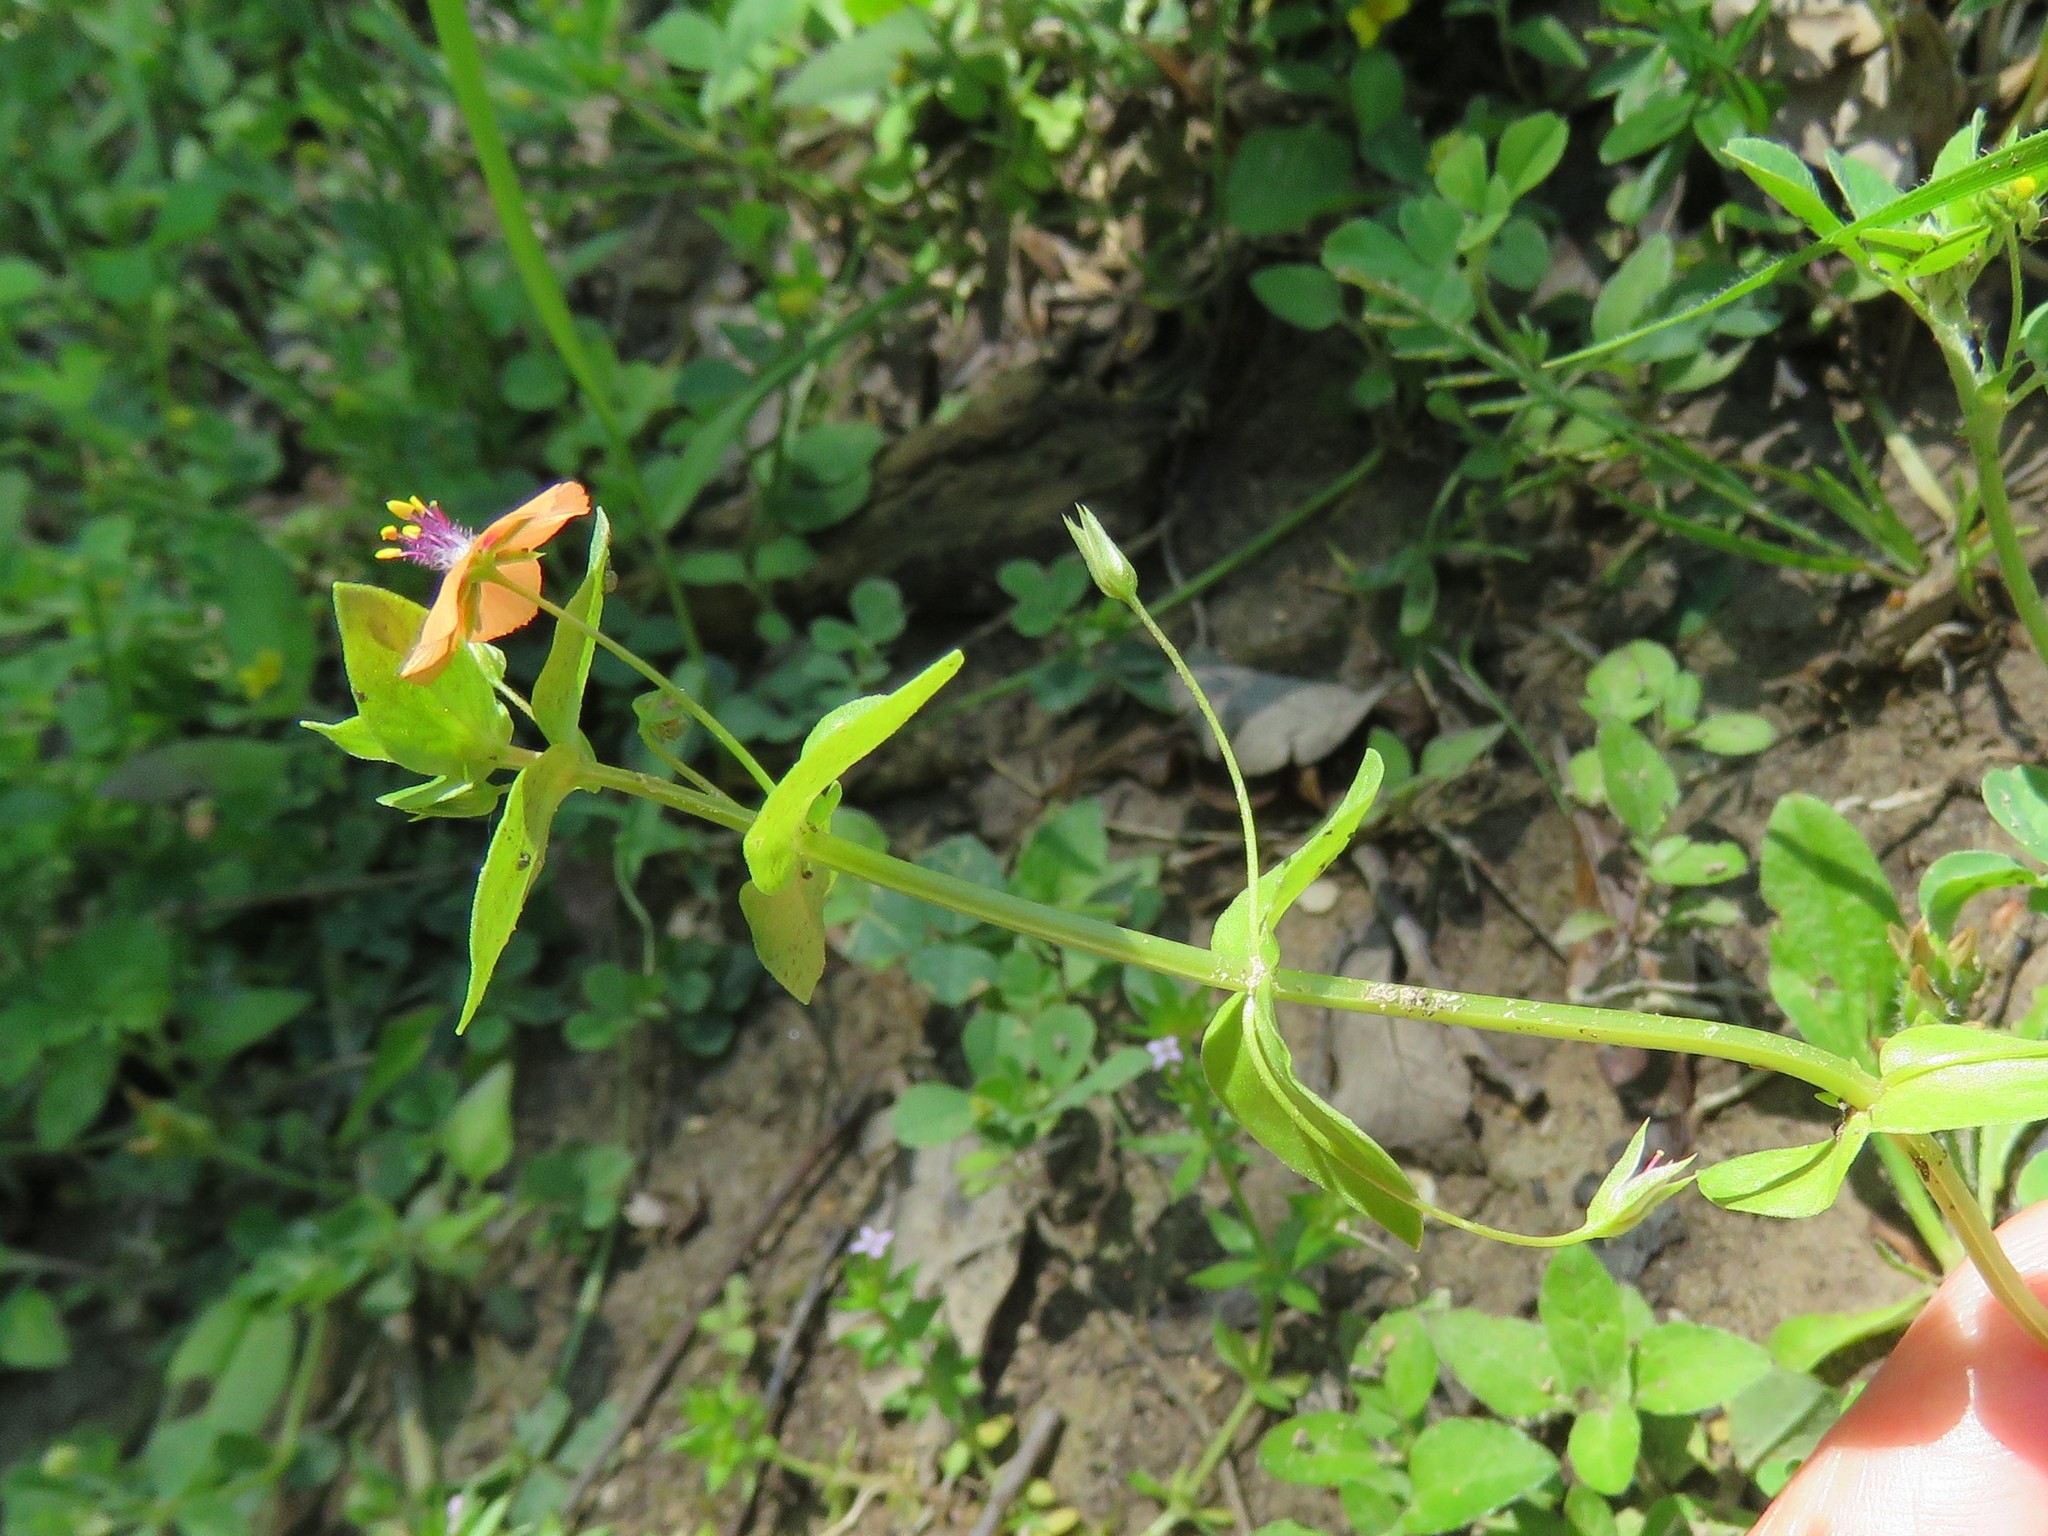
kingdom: Plantae
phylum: Tracheophyta
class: Magnoliopsida
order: Ericales
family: Primulaceae
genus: Lysimachia
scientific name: Lysimachia arvensis
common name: Scarlet pimpernel
